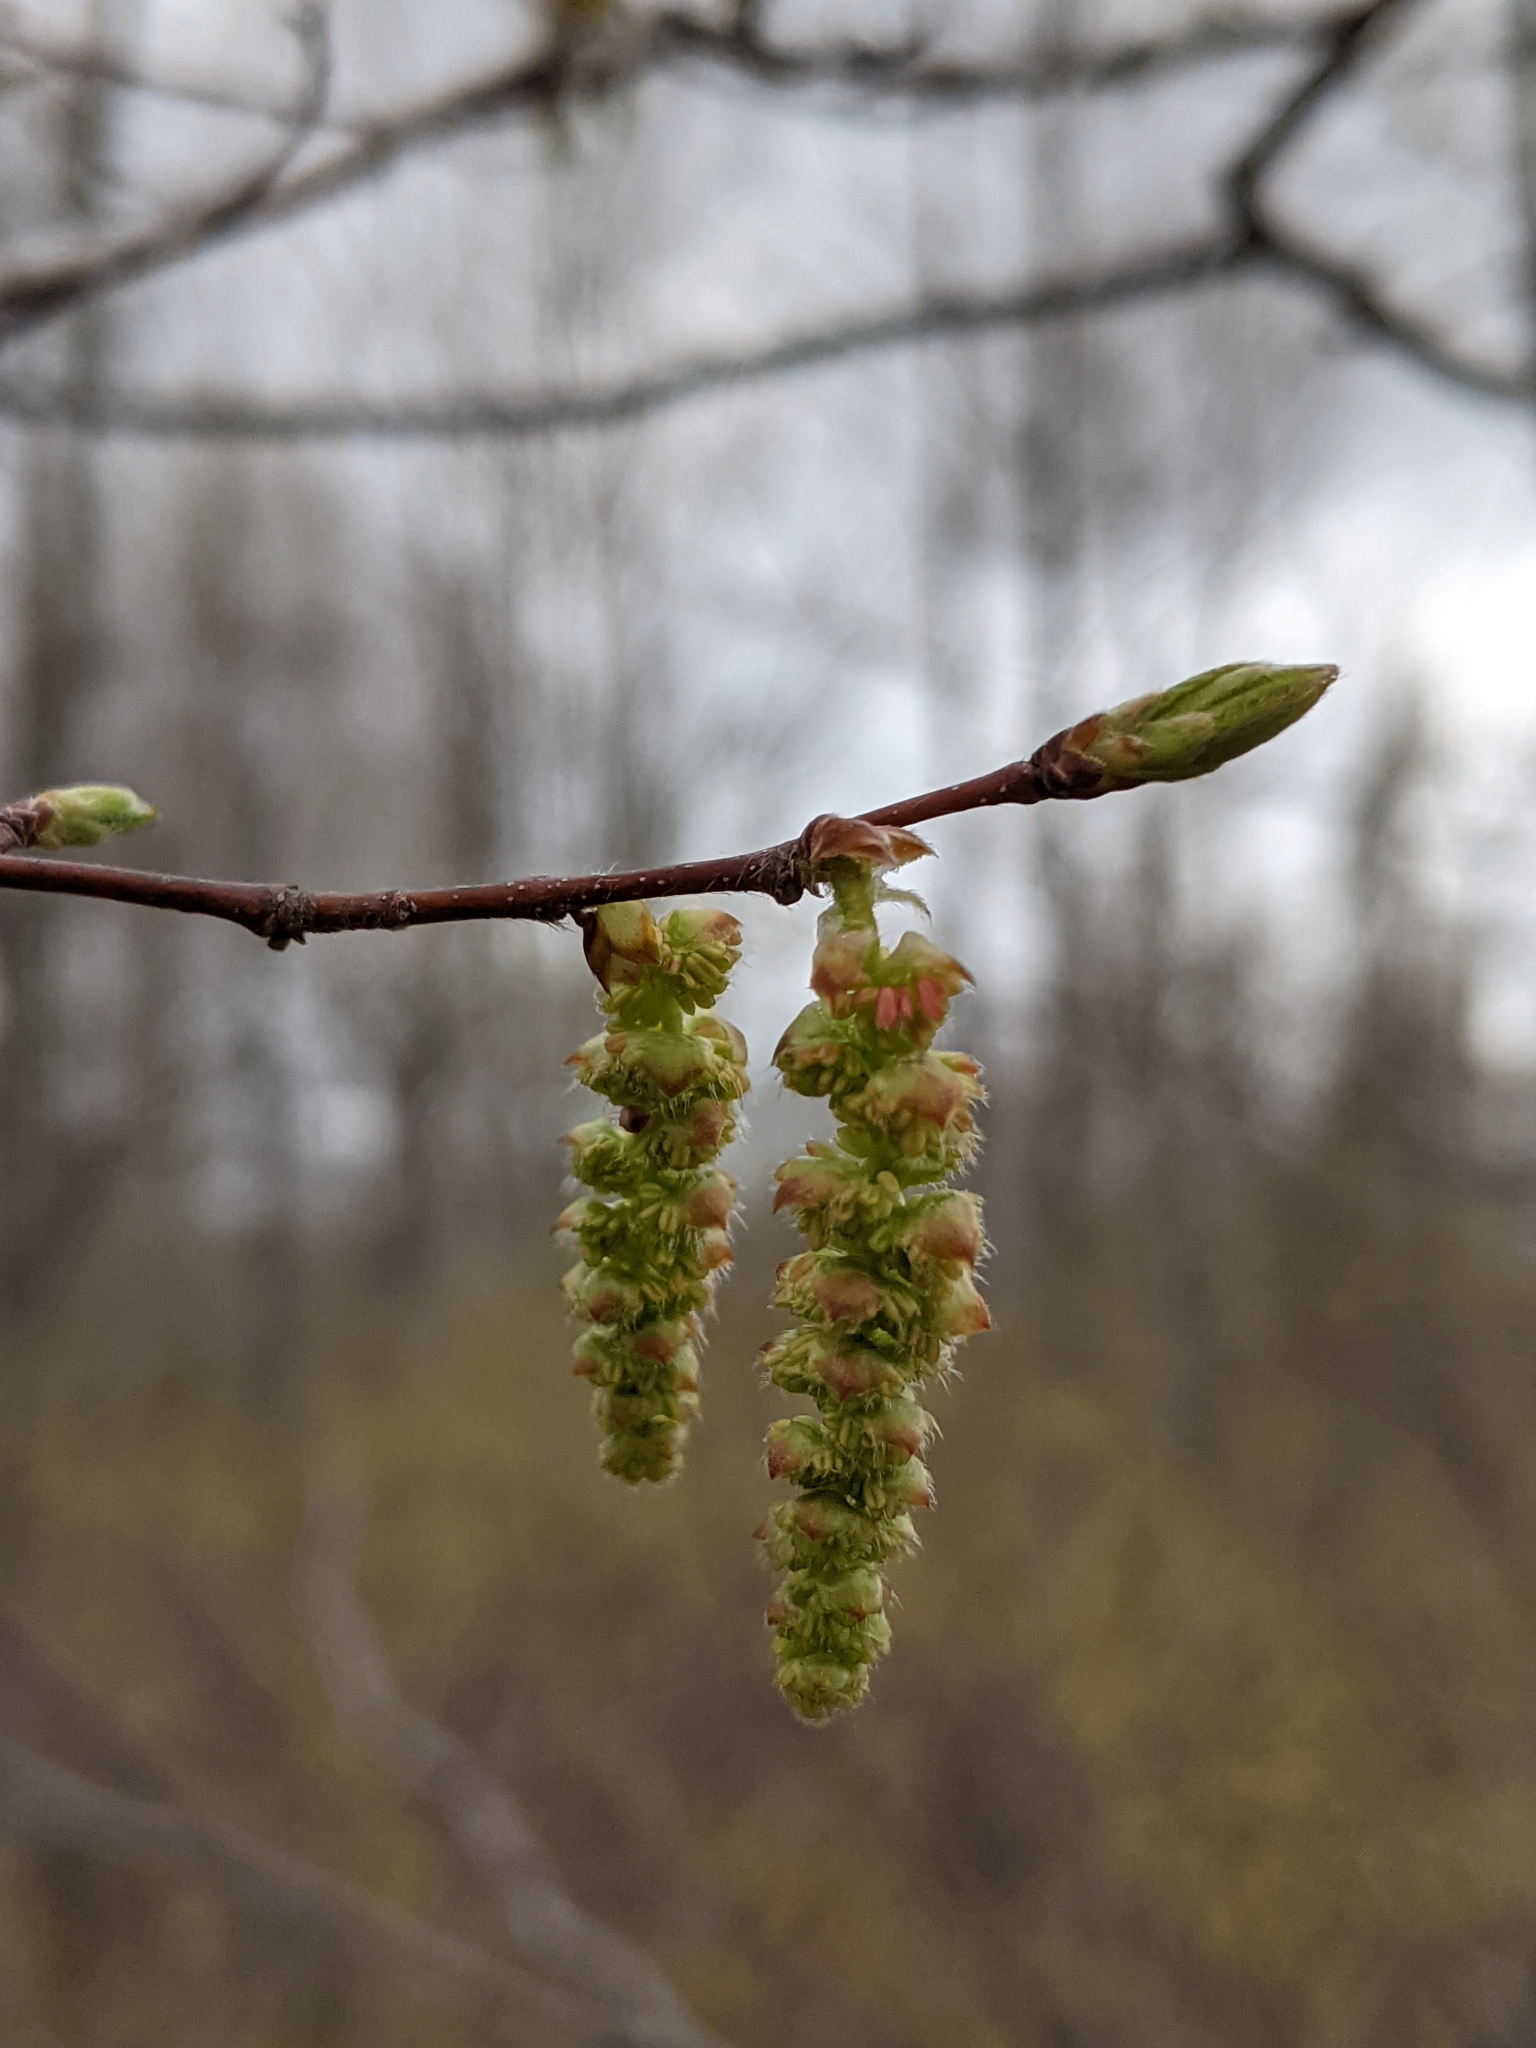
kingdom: Plantae
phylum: Tracheophyta
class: Magnoliopsida
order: Fagales
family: Betulaceae
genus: Carpinus
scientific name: Carpinus caroliniana
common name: American hornbeam
